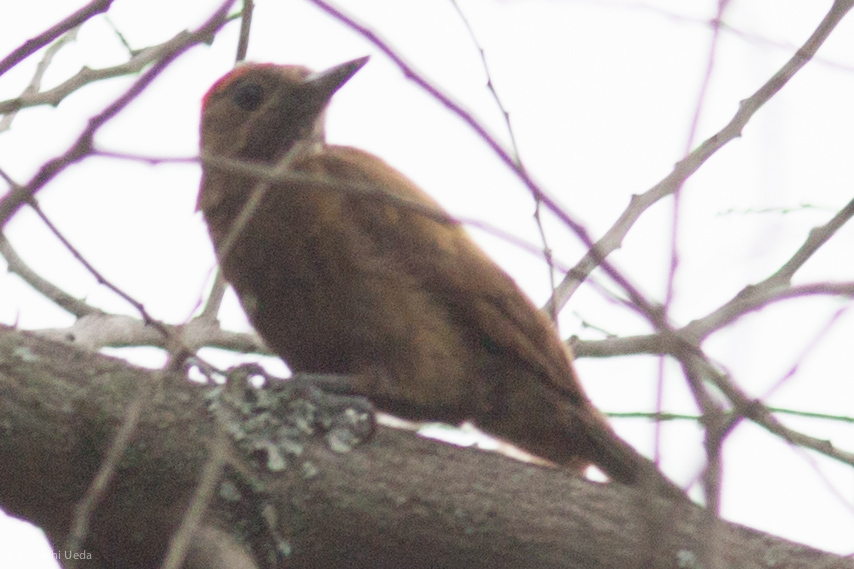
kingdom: Animalia
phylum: Chordata
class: Aves
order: Piciformes
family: Picidae
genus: Leuconotopicus
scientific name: Leuconotopicus fumigatus
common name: Smoky-brown woodpecker
